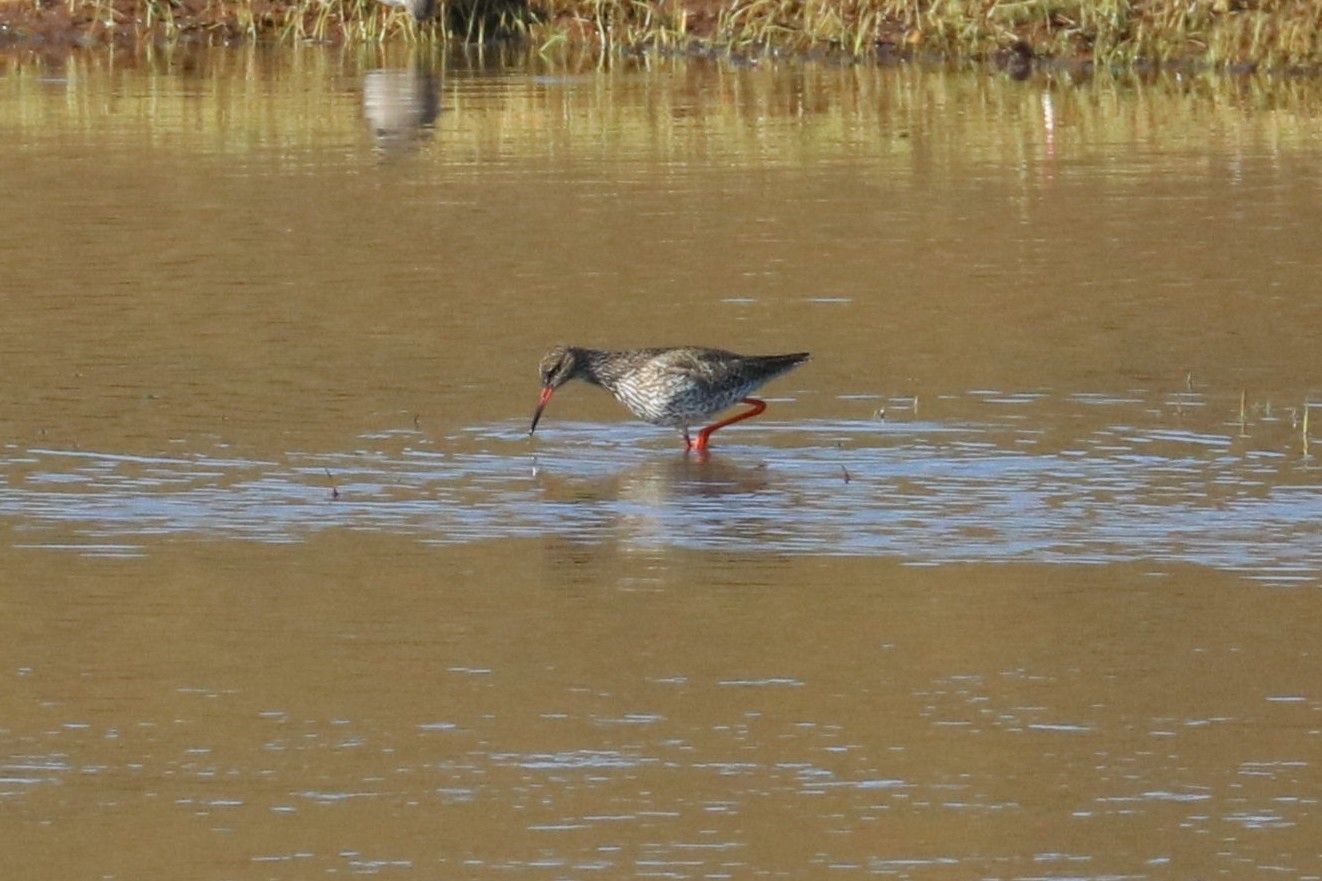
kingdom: Animalia
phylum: Chordata
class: Aves
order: Charadriiformes
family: Scolopacidae
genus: Tringa
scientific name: Tringa totanus
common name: Common redshank
